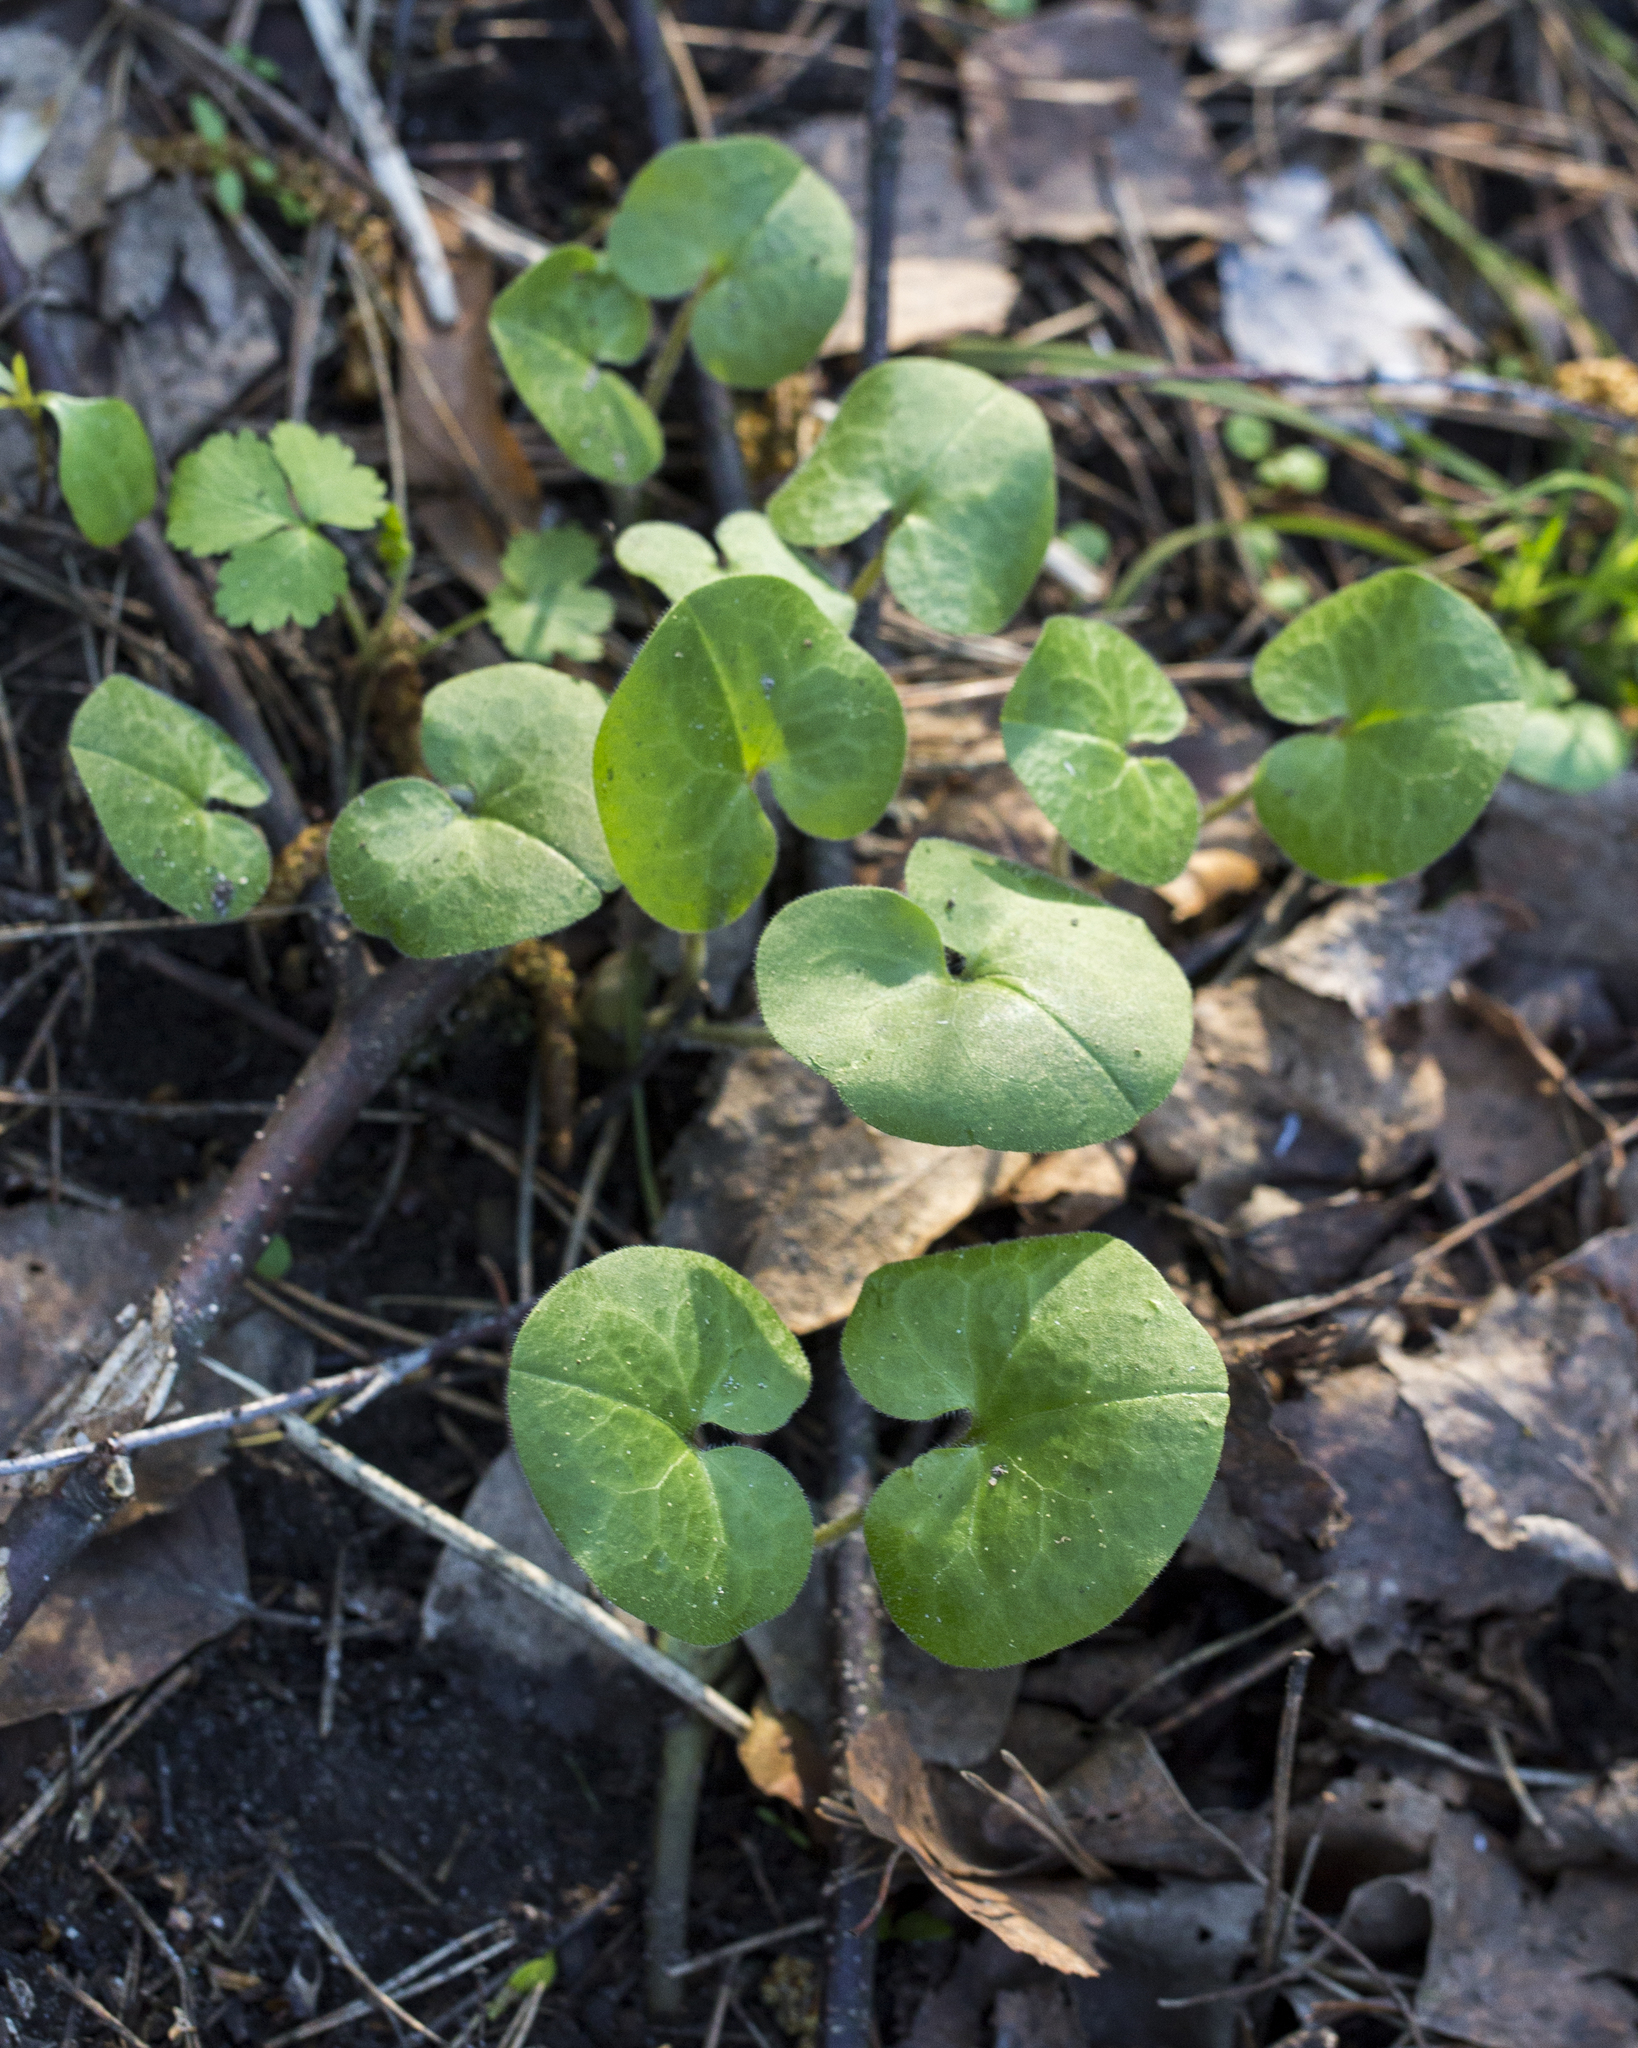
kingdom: Plantae
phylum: Tracheophyta
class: Magnoliopsida
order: Piperales
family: Aristolochiaceae
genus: Asarum
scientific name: Asarum europaeum
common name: Asarabacca
